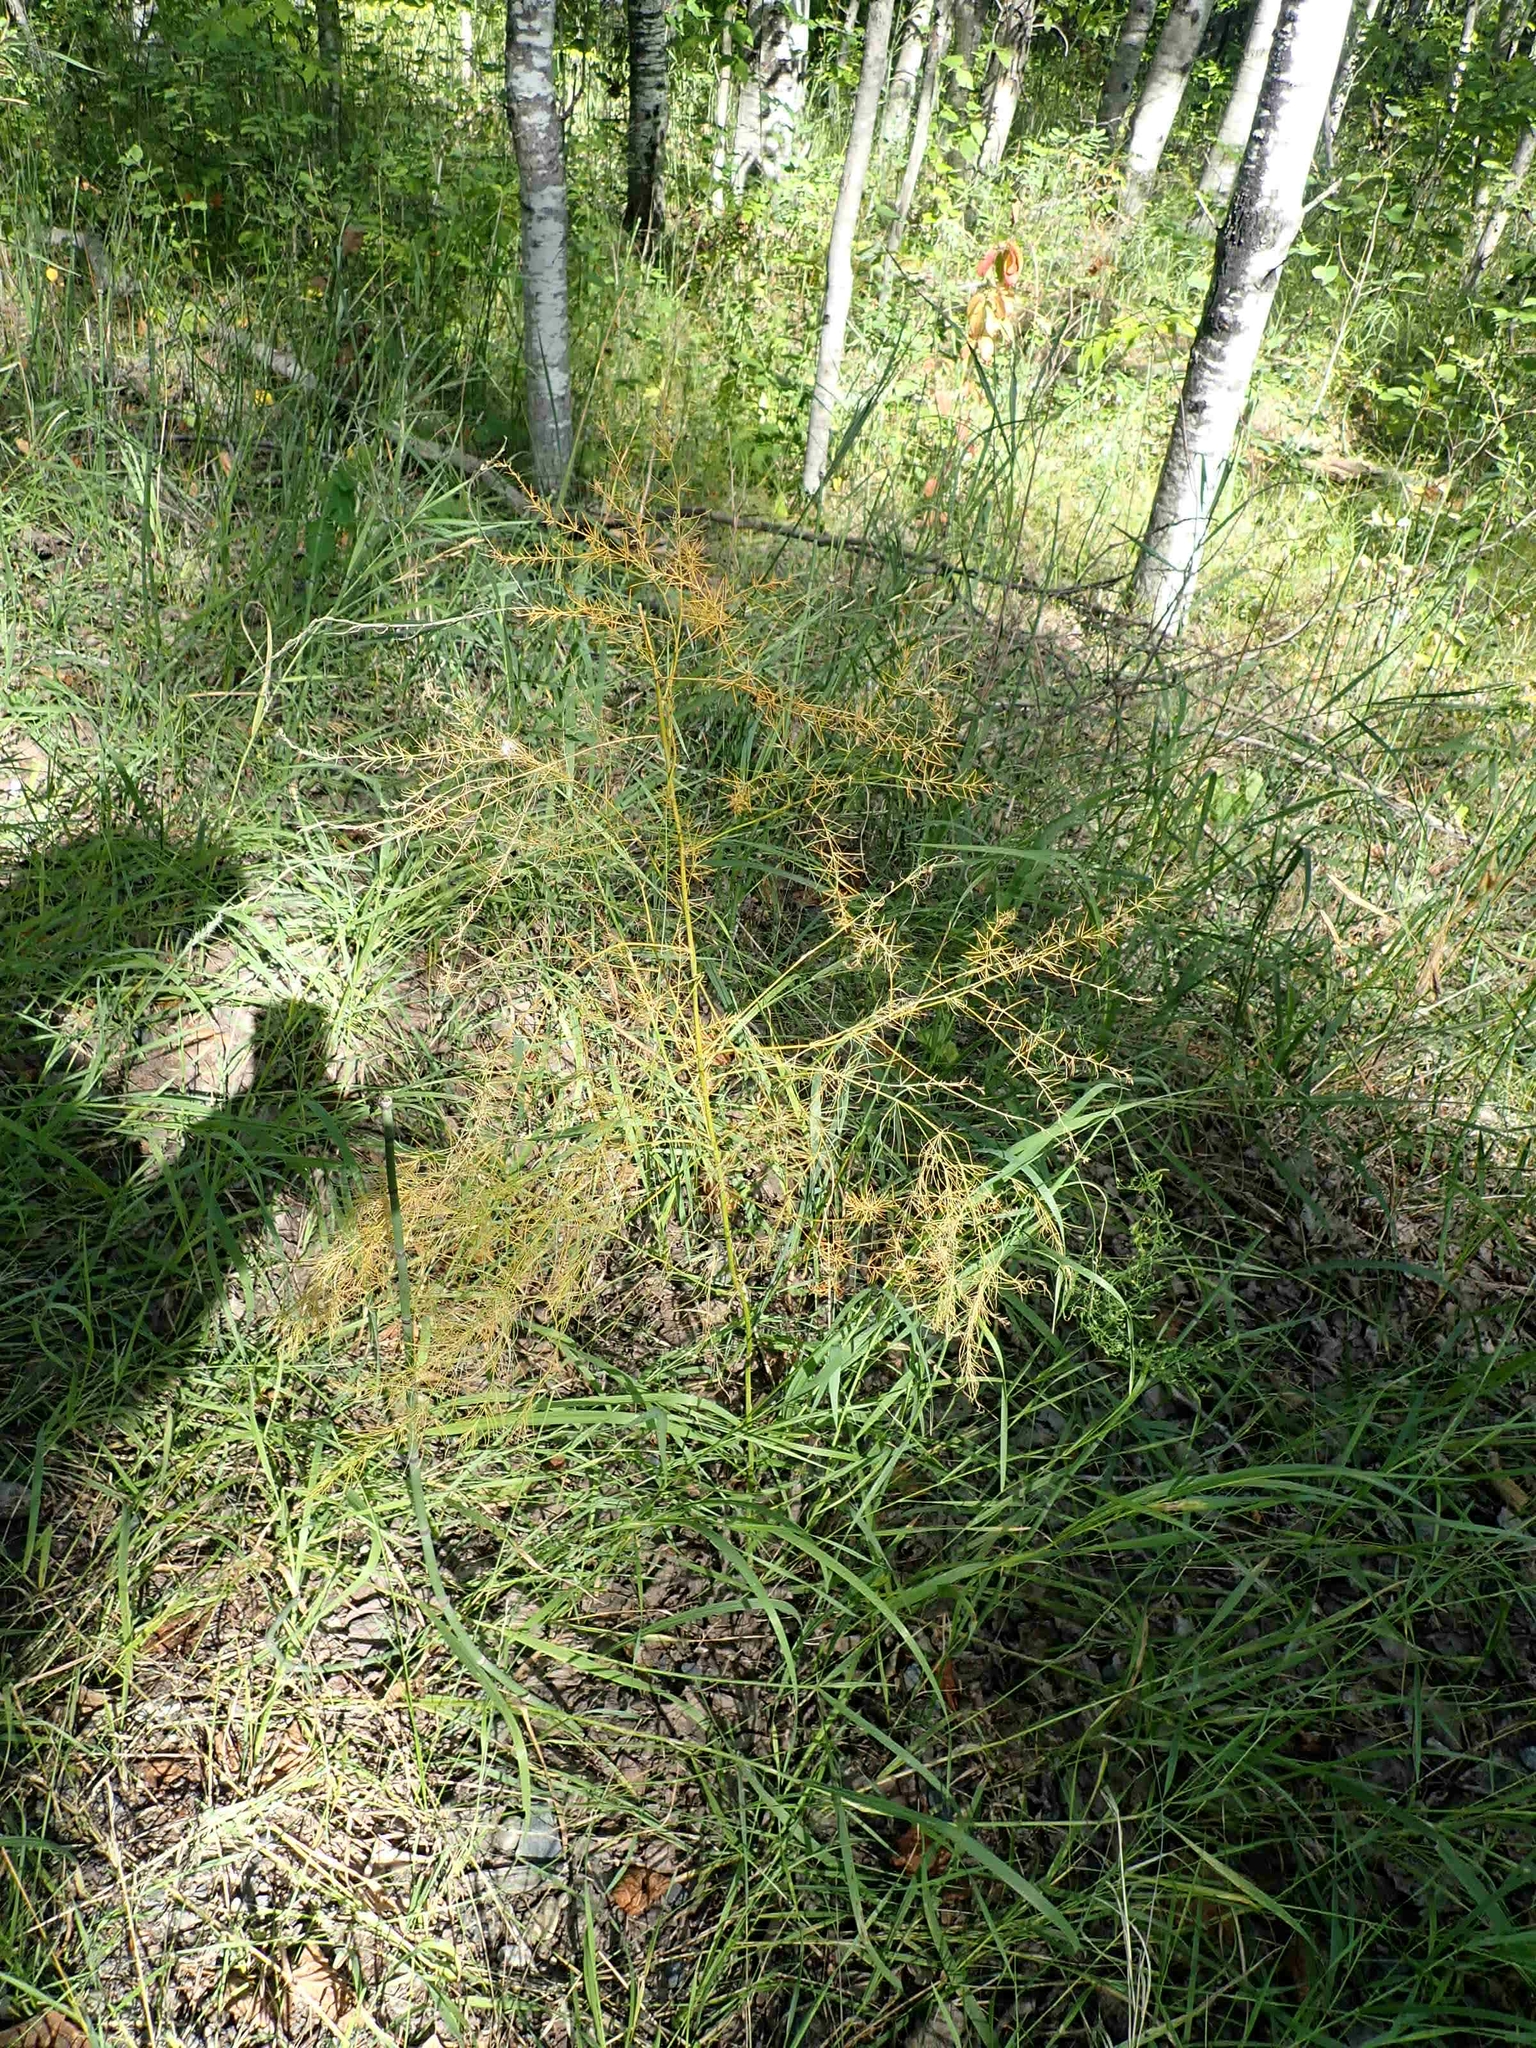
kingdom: Plantae
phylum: Tracheophyta
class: Liliopsida
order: Asparagales
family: Asparagaceae
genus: Asparagus
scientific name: Asparagus officinalis
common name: Garden asparagus
